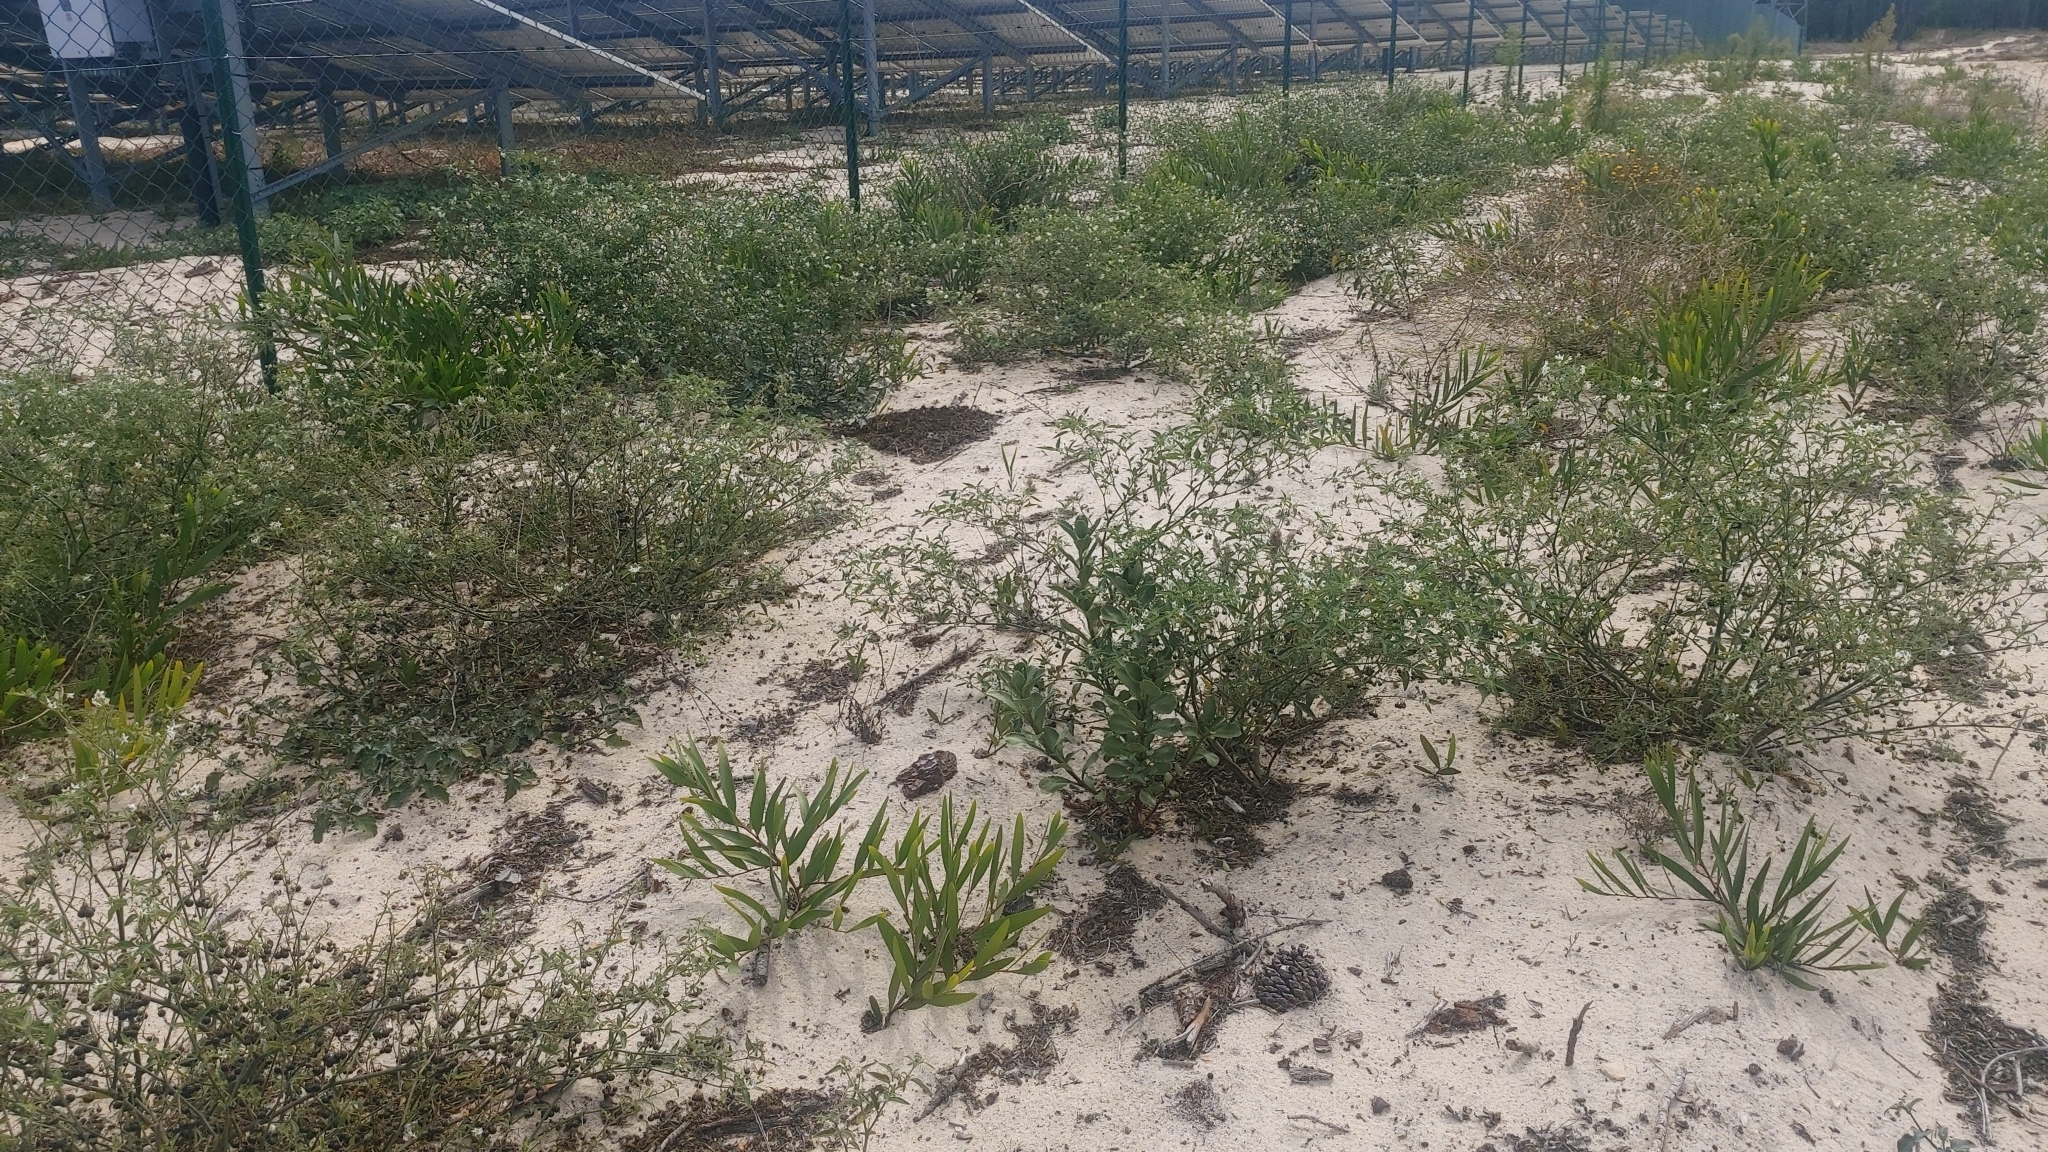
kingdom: Plantae
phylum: Tracheophyta
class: Magnoliopsida
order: Solanales
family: Solanaceae
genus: Solanum
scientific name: Solanum chenopodioides
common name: Tall nightshade
